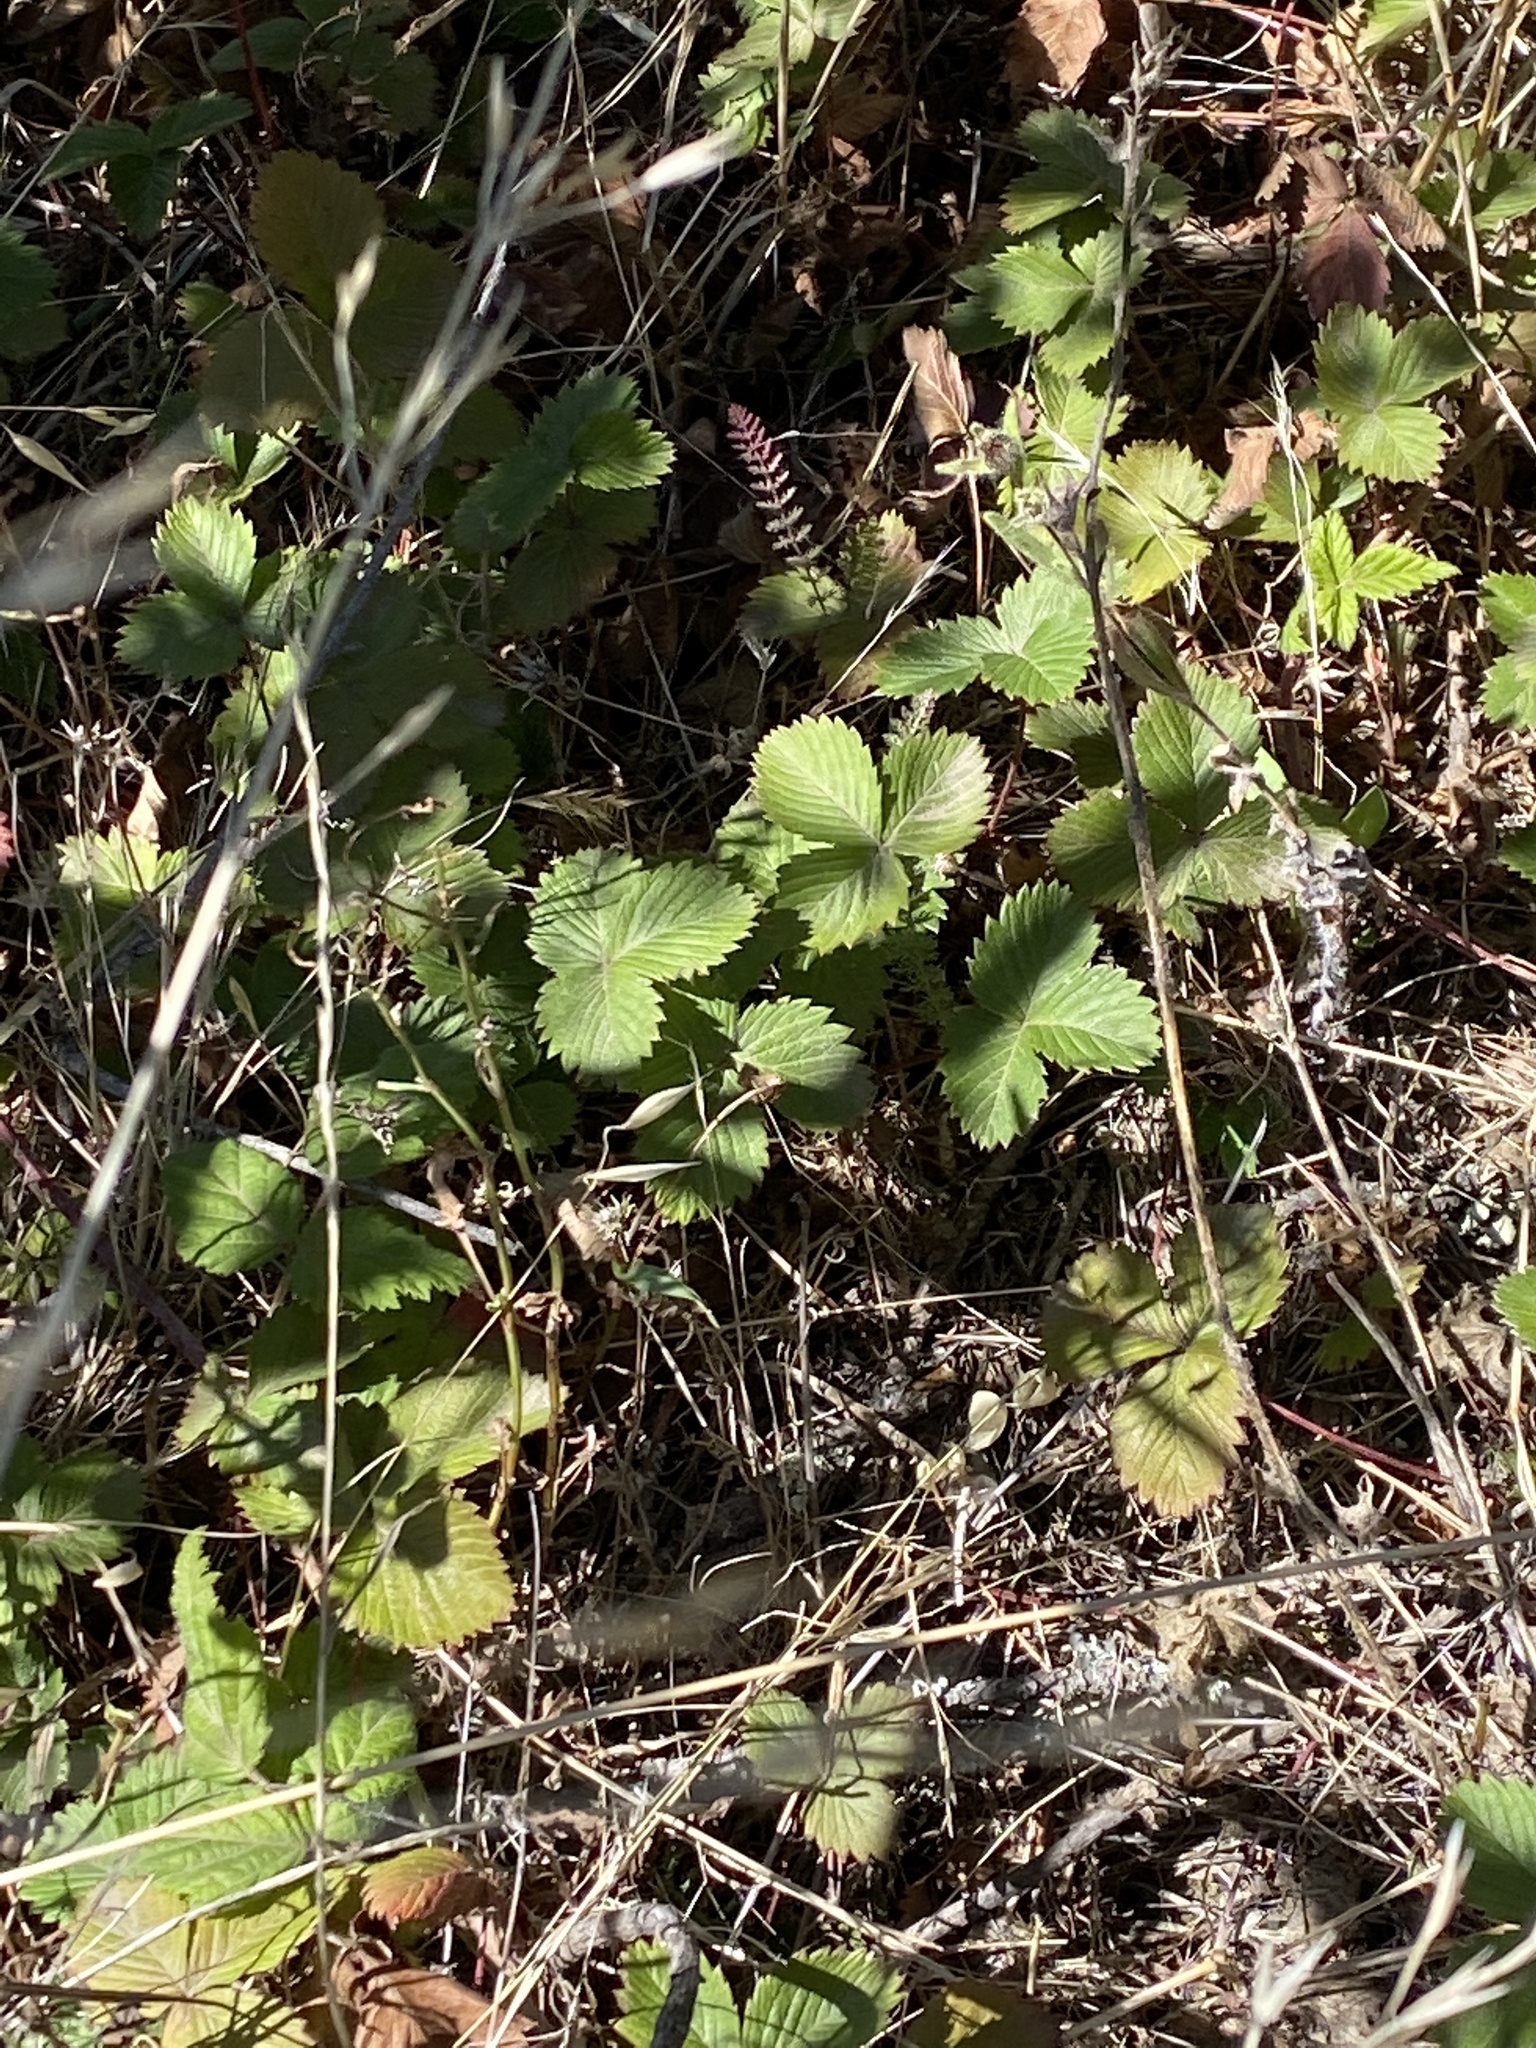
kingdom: Plantae
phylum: Tracheophyta
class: Magnoliopsida
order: Rosales
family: Rosaceae
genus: Fragaria
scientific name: Fragaria vesca
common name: Wild strawberry
